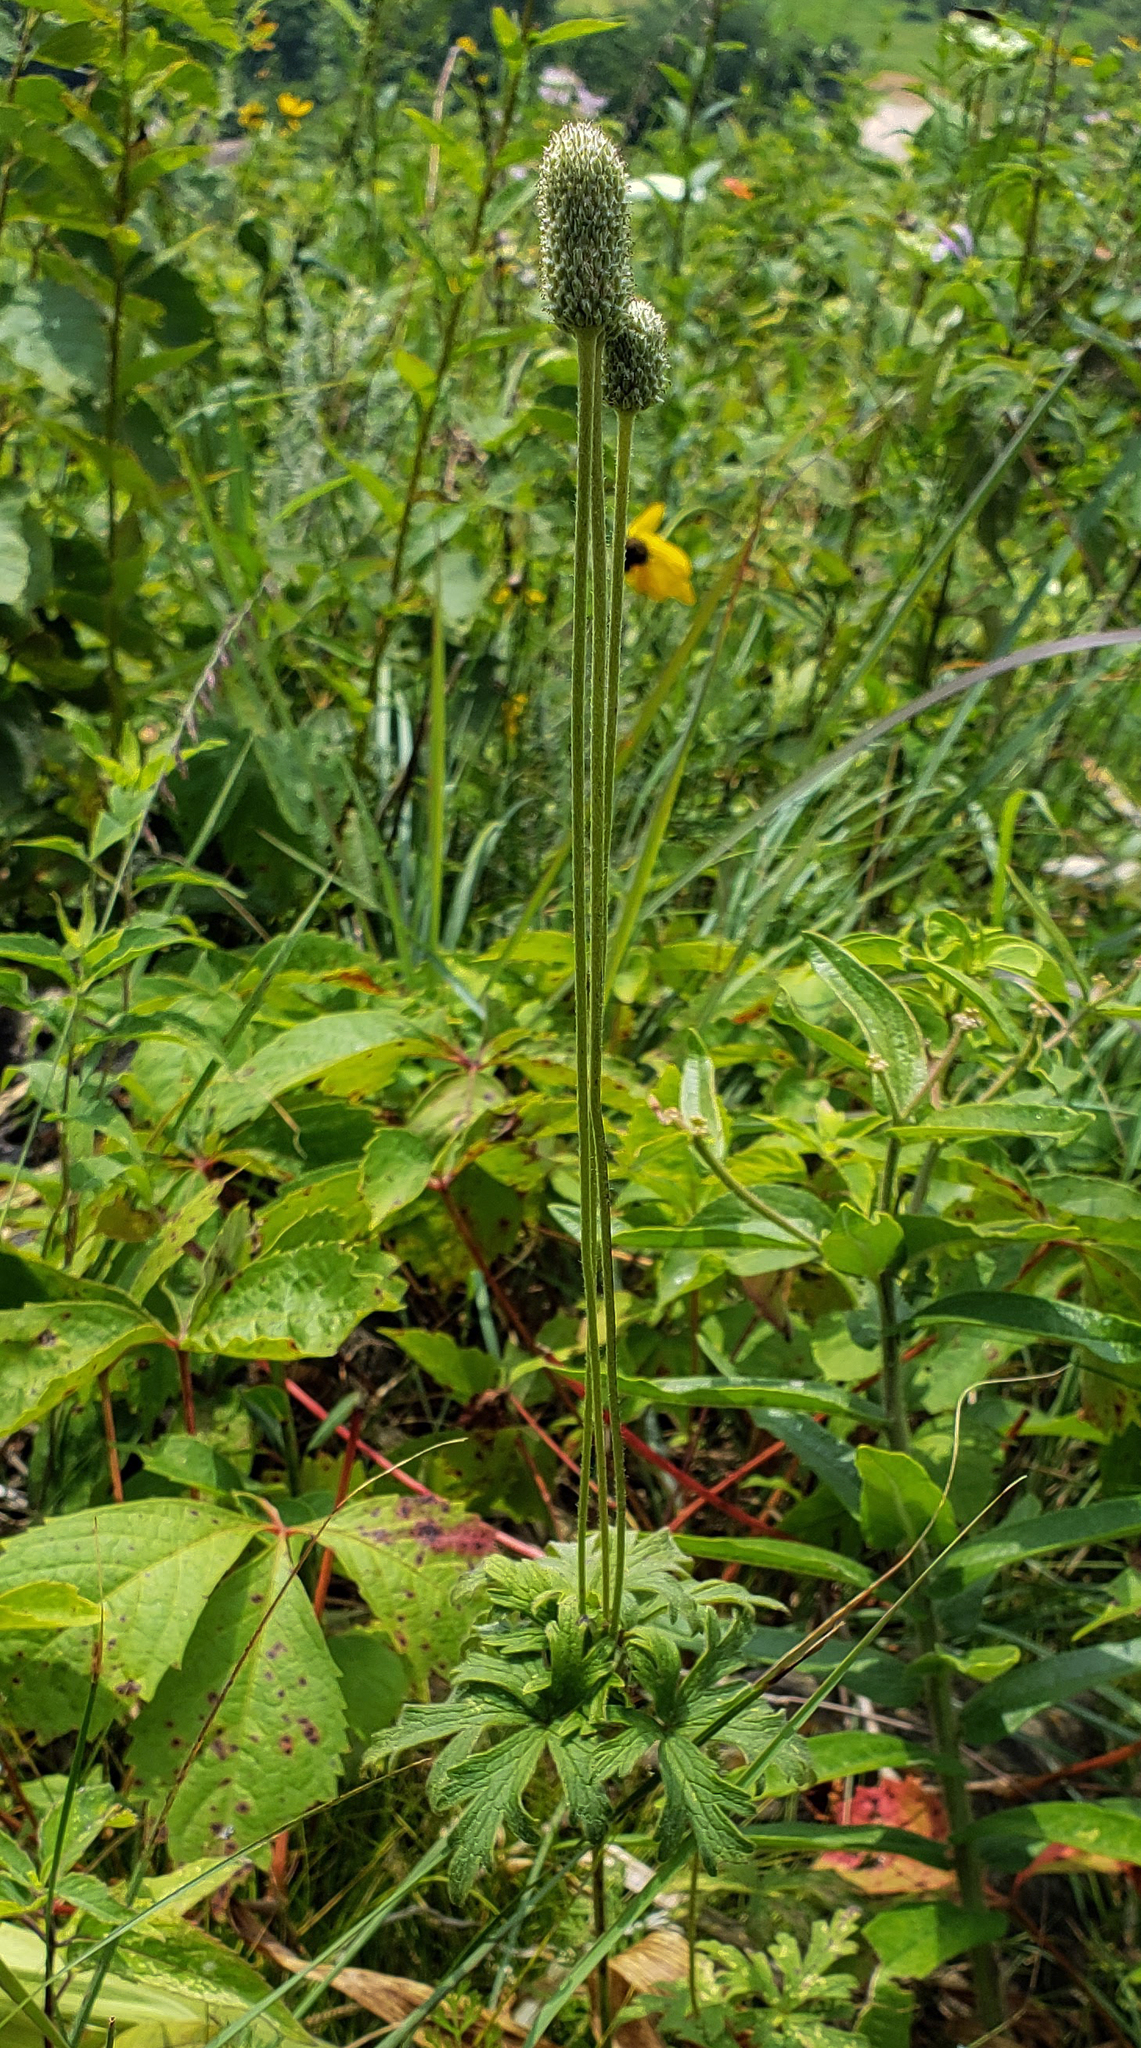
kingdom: Plantae
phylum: Tracheophyta
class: Magnoliopsida
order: Ranunculales
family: Ranunculaceae
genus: Anemone
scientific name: Anemone cylindrica
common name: Candle anemone
